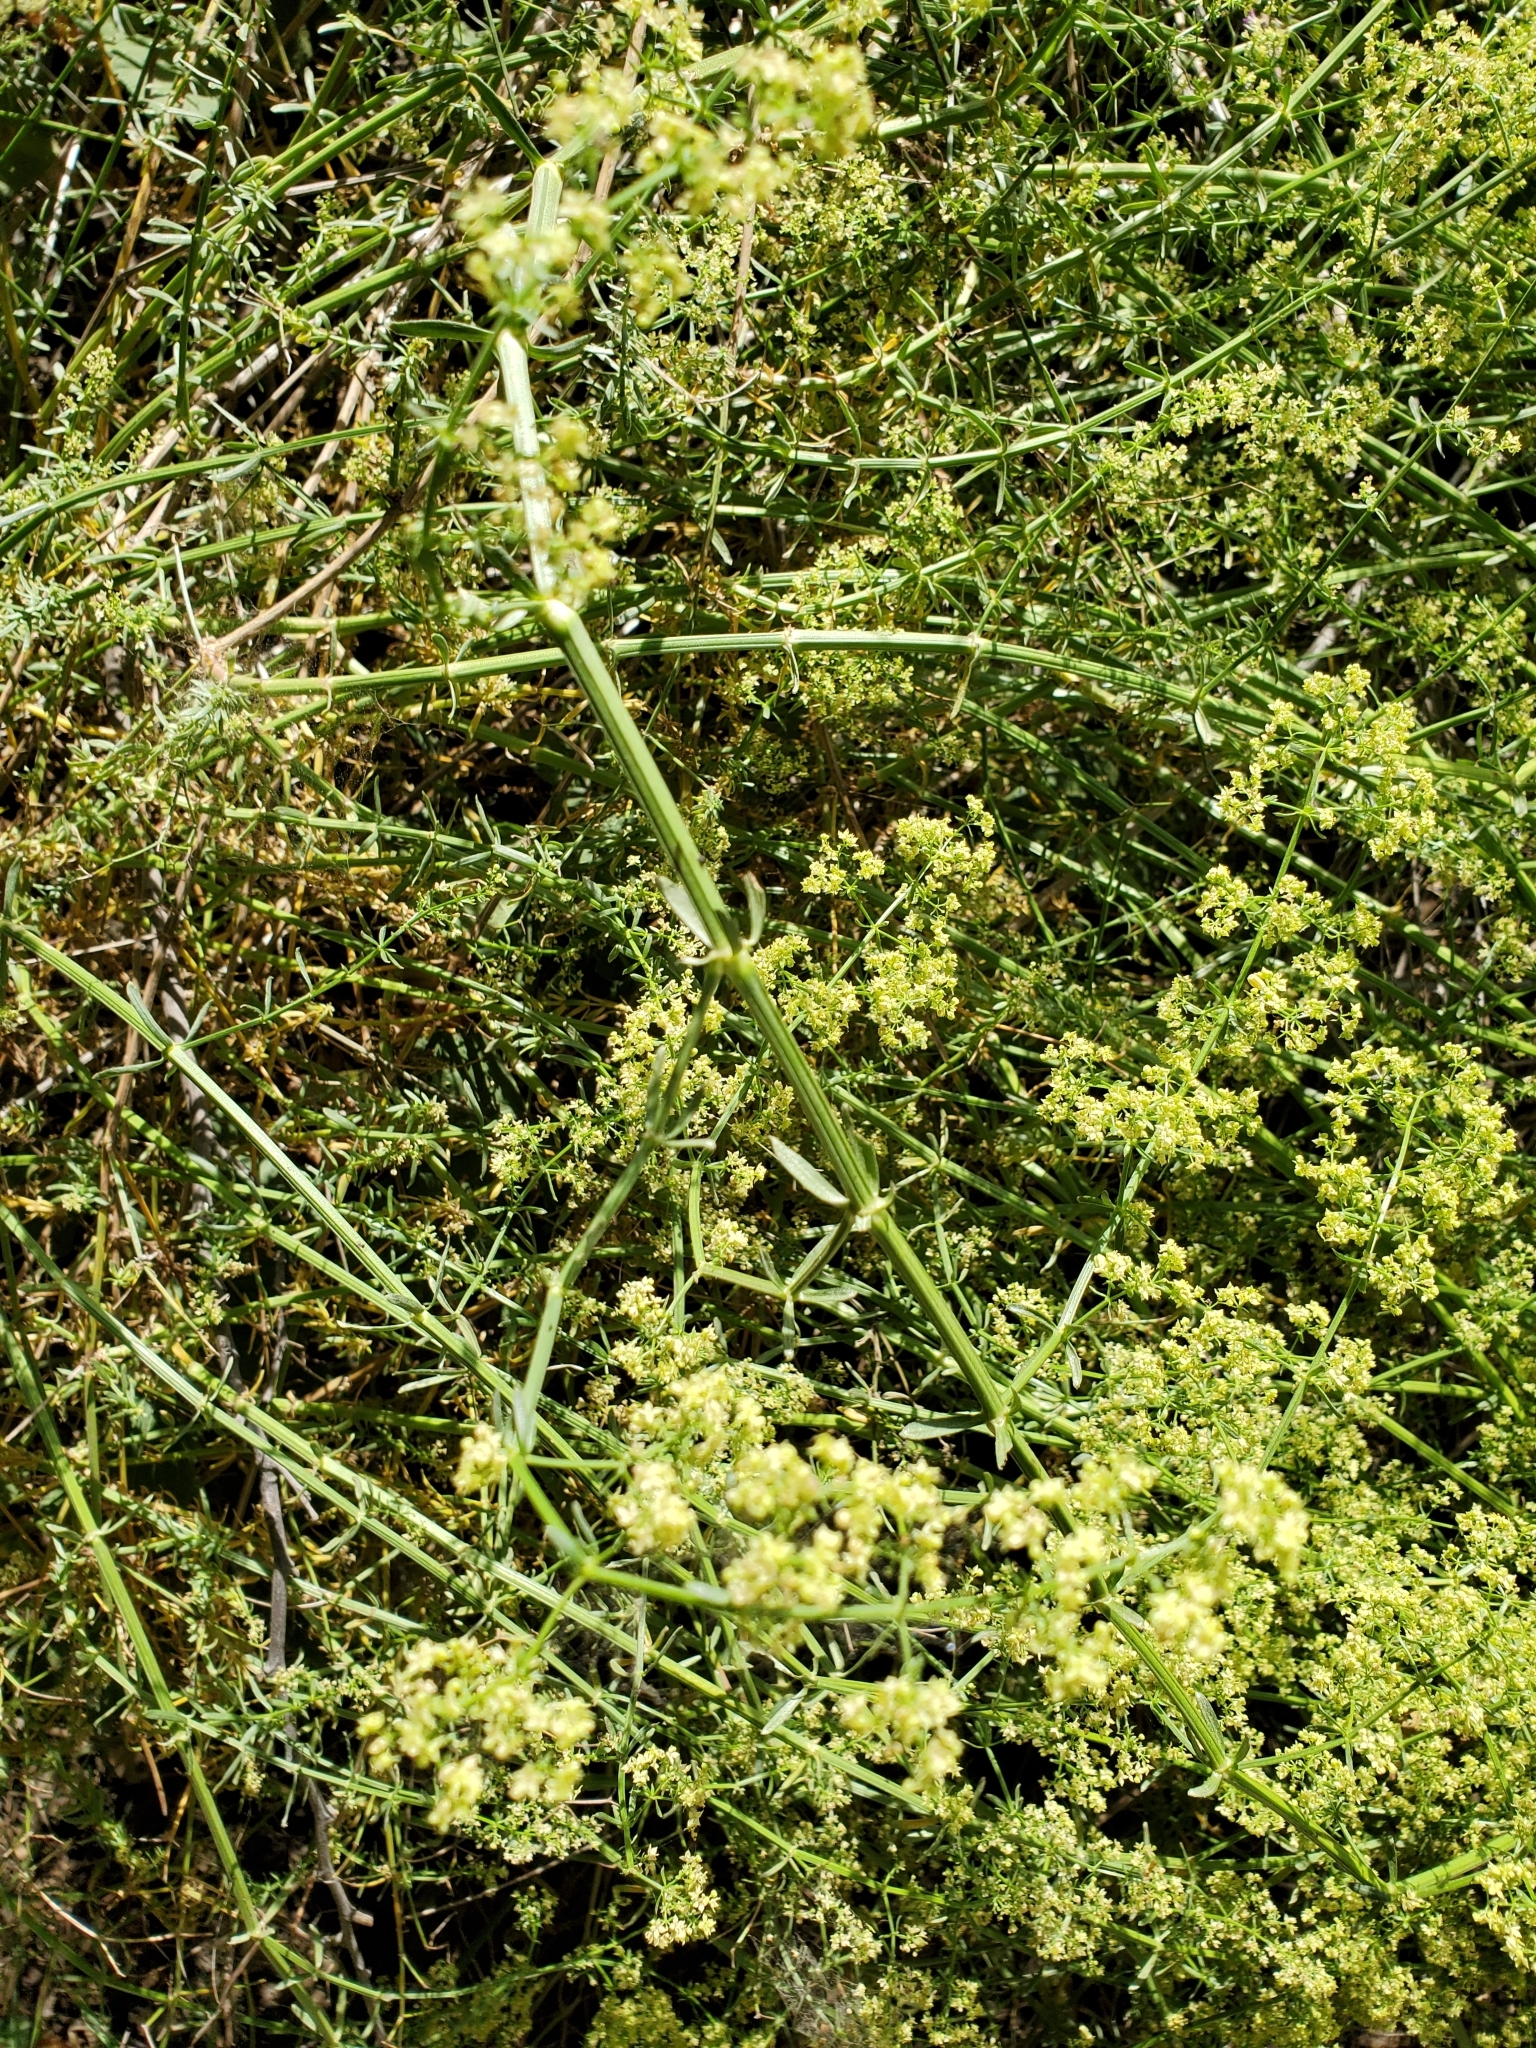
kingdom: Plantae
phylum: Tracheophyta
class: Magnoliopsida
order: Gentianales
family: Rubiaceae
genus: Galium
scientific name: Galium angustifolium
